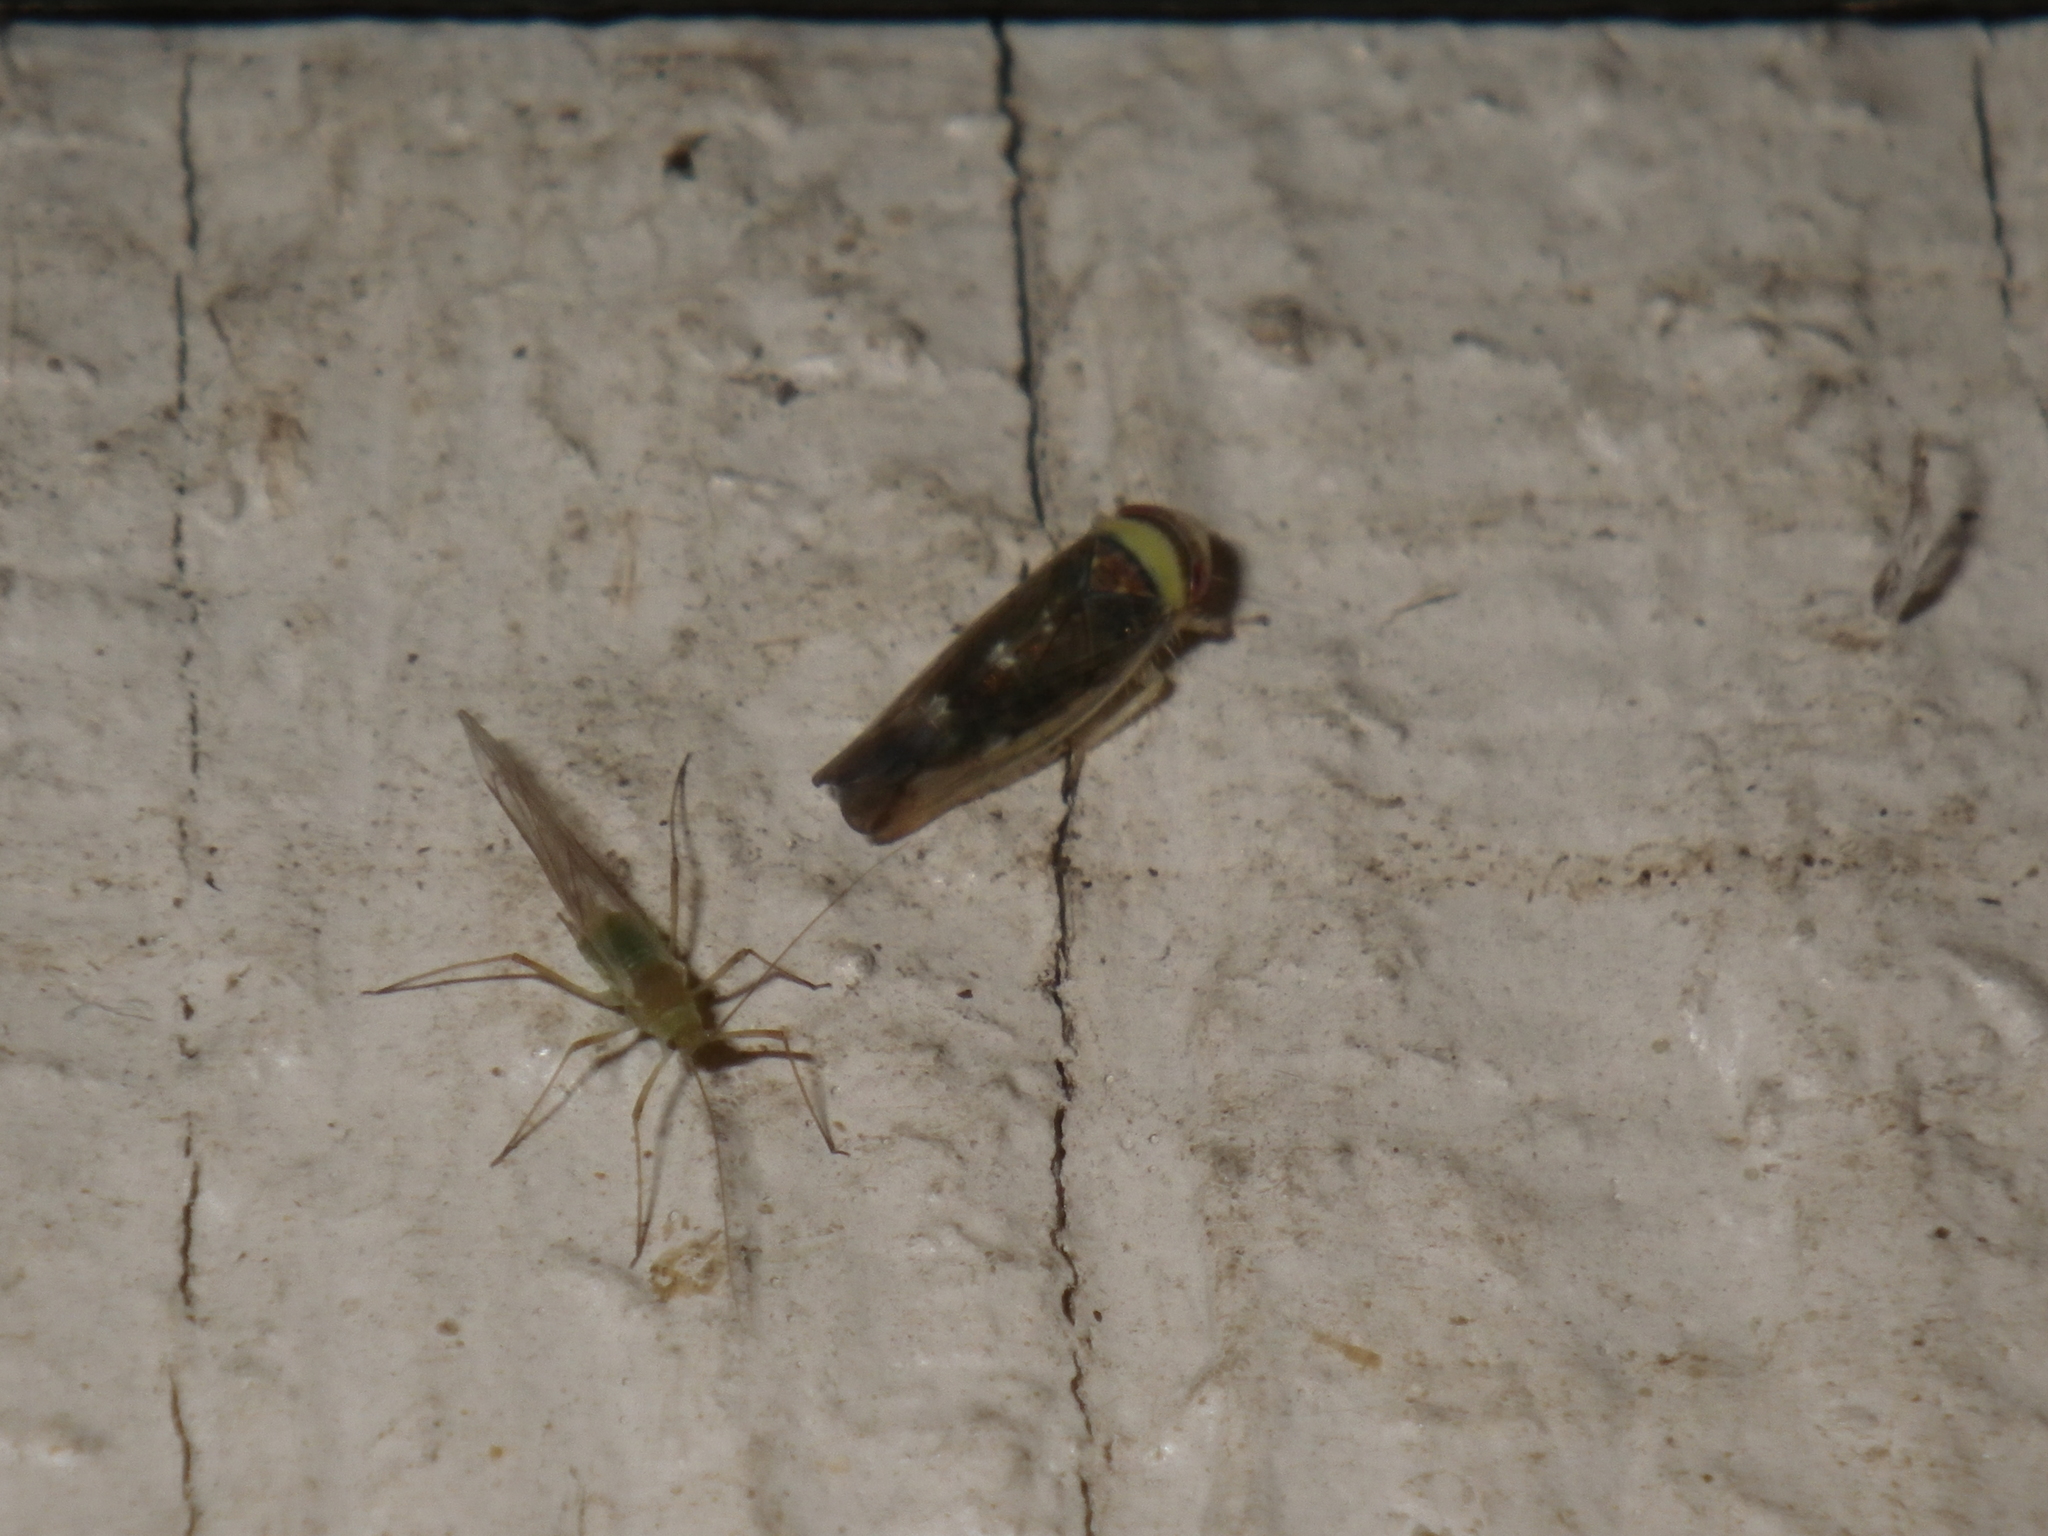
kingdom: Animalia
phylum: Arthropoda
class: Insecta
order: Hemiptera
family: Cicadellidae
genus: Colladonus
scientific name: Colladonus montanus
